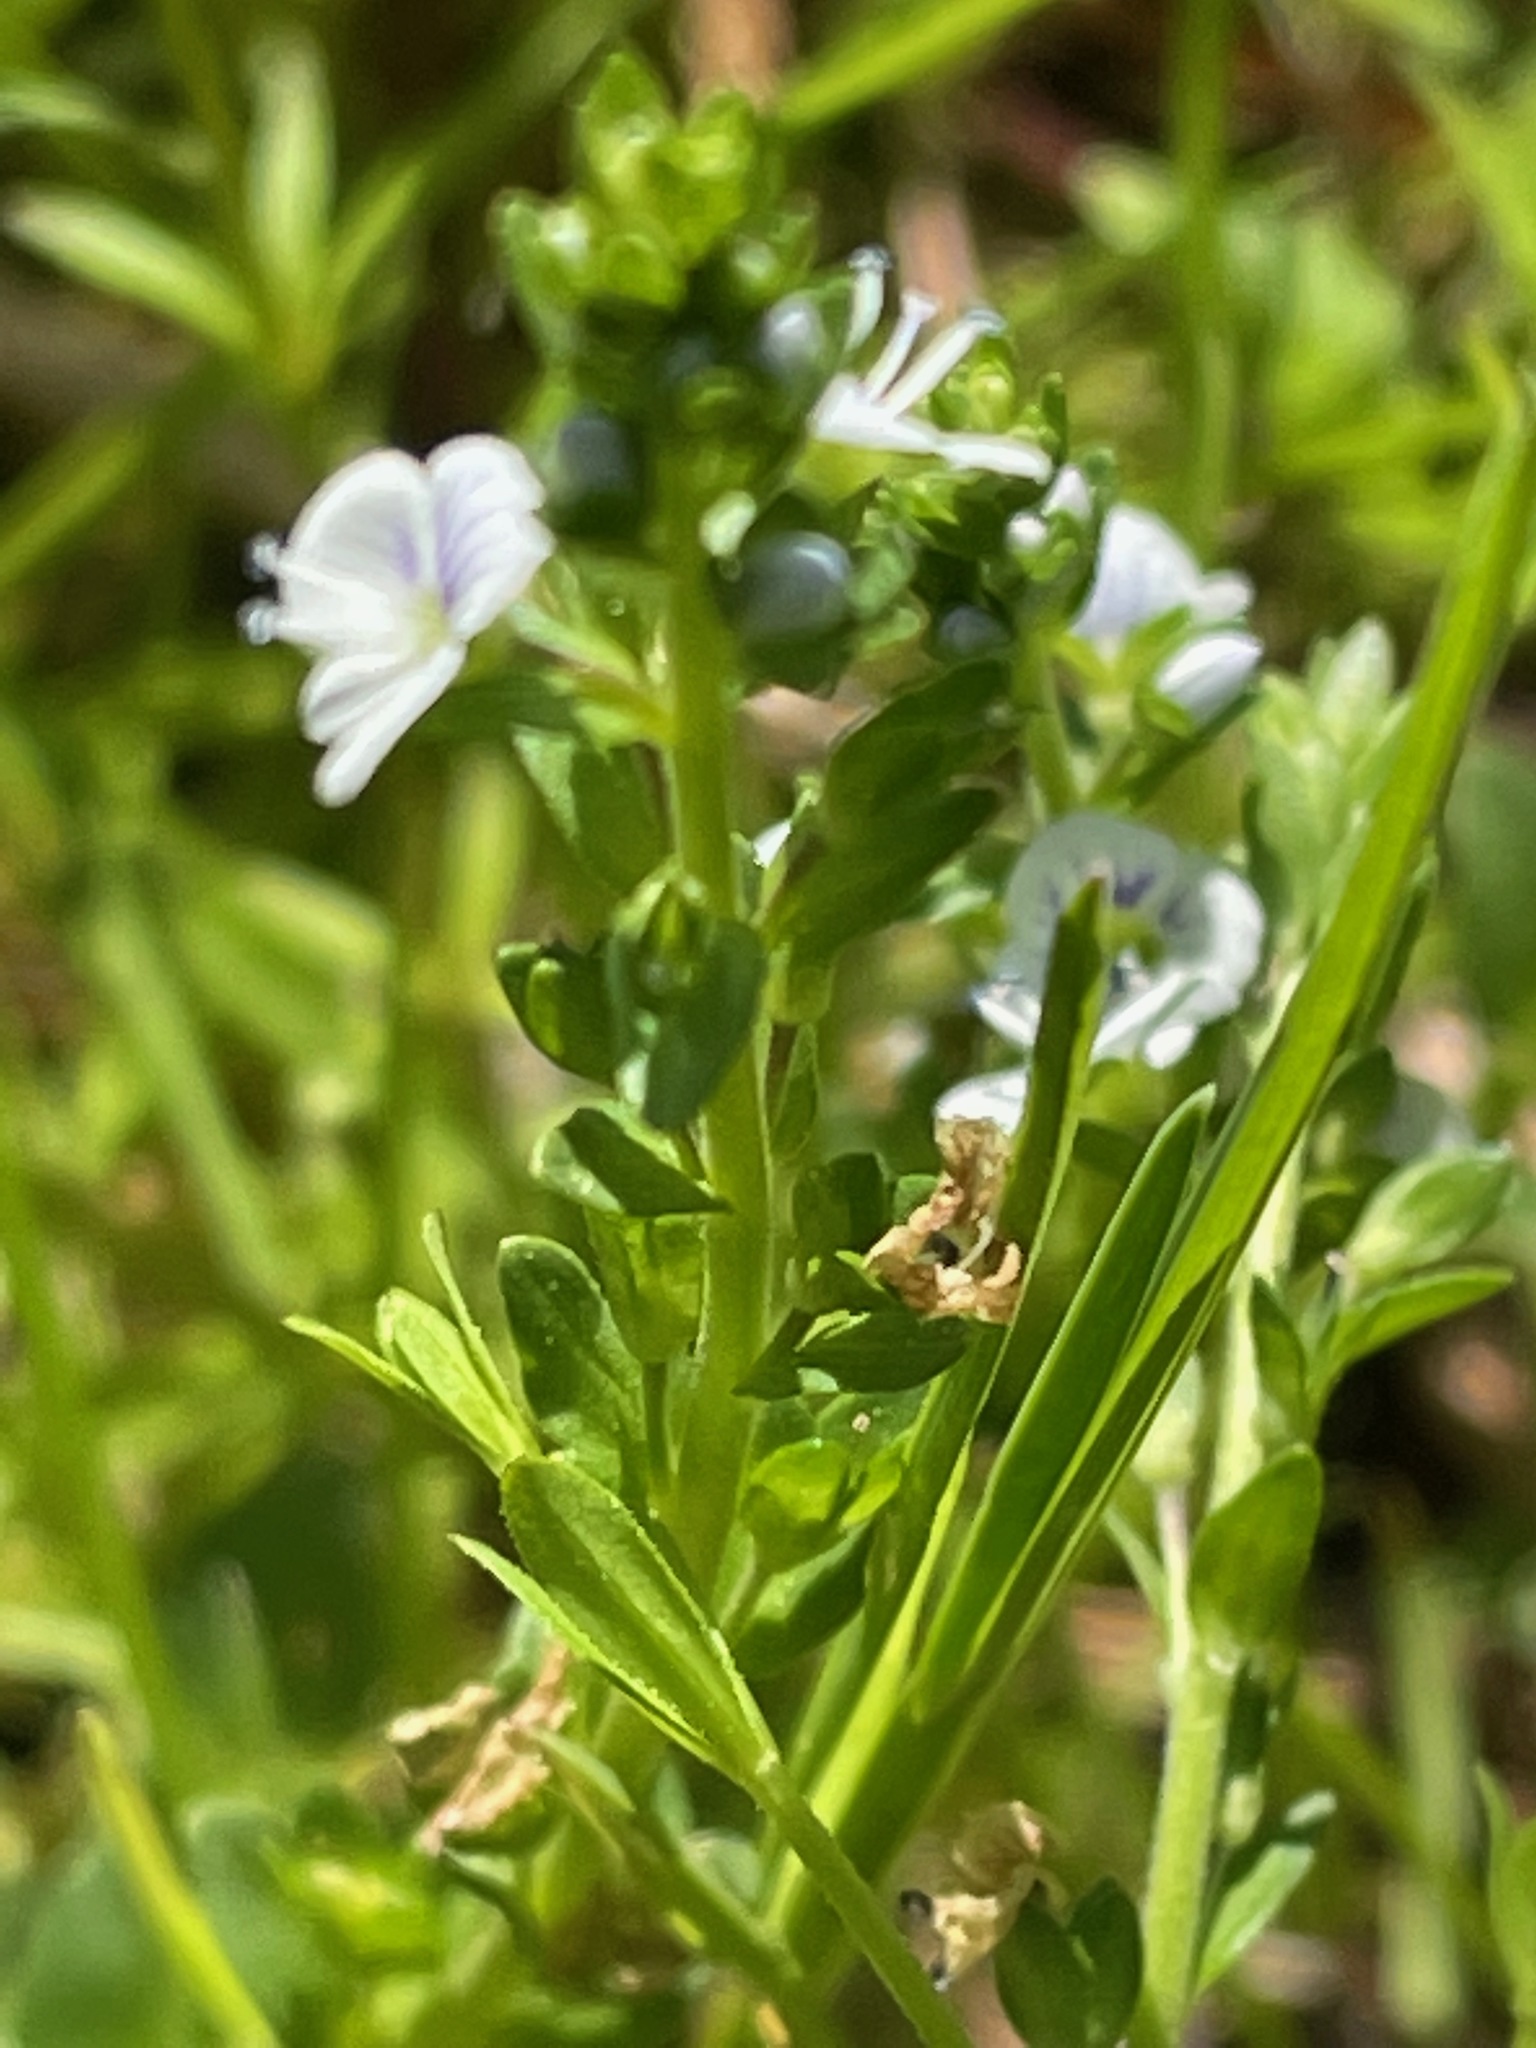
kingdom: Plantae
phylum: Tracheophyta
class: Magnoliopsida
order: Lamiales
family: Plantaginaceae
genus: Veronica
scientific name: Veronica serpyllifolia
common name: Thyme-leaved speedwell
